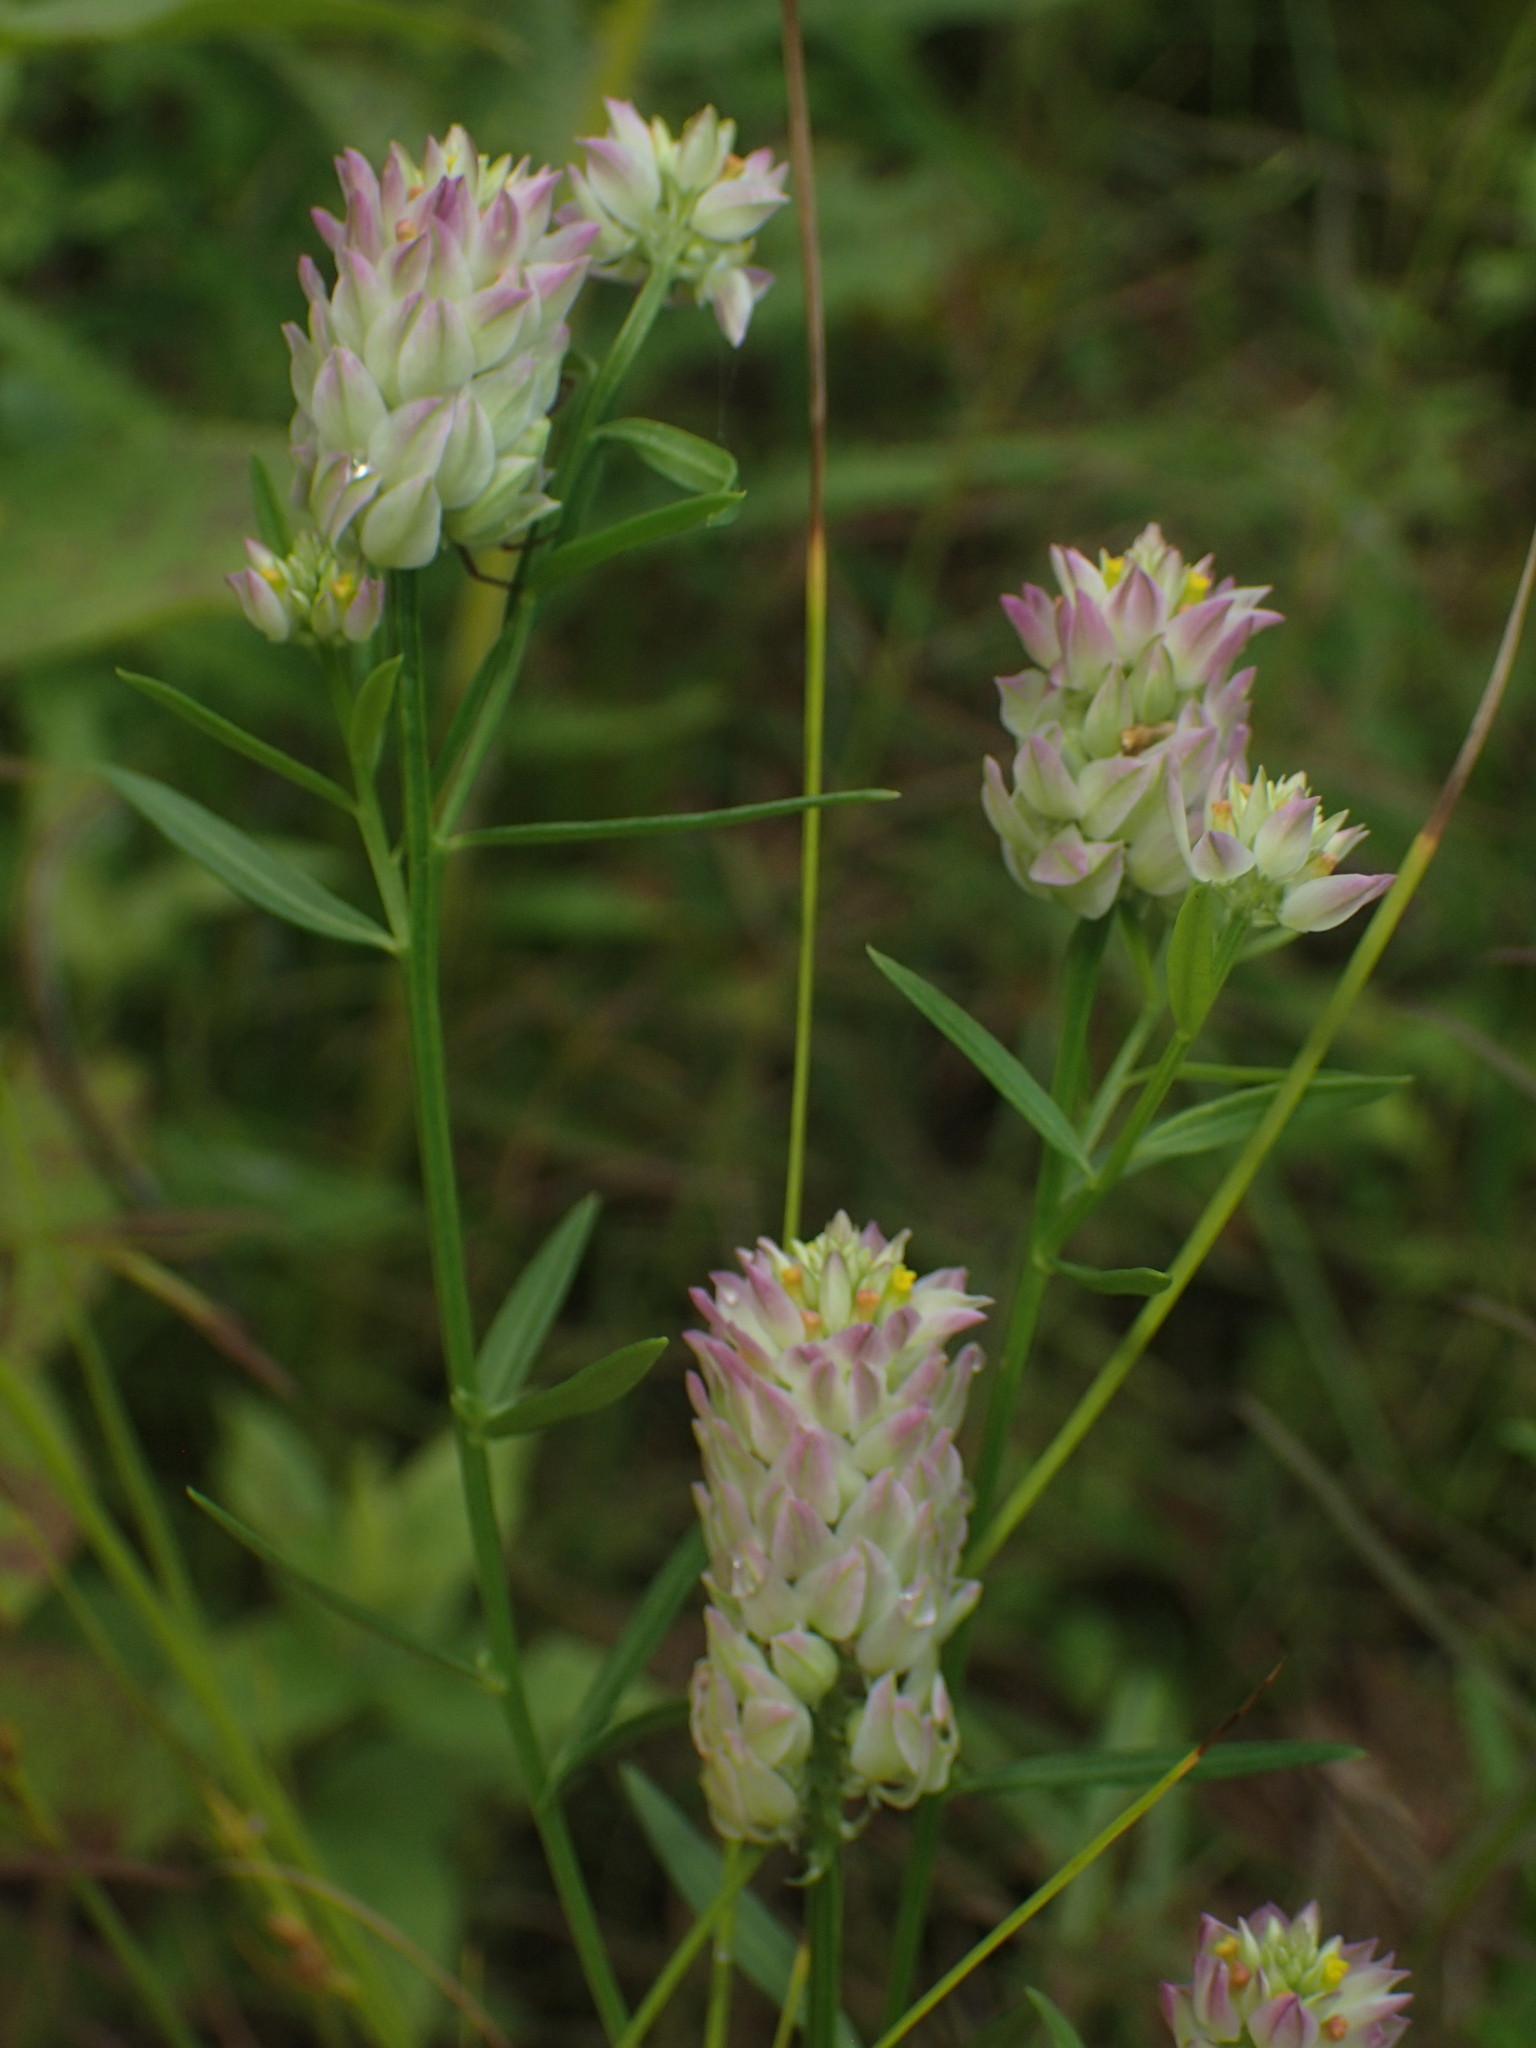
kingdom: Plantae
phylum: Tracheophyta
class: Magnoliopsida
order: Fabales
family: Polygalaceae
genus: Polygala
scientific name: Polygala sanguinea
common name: Blood milkwort
